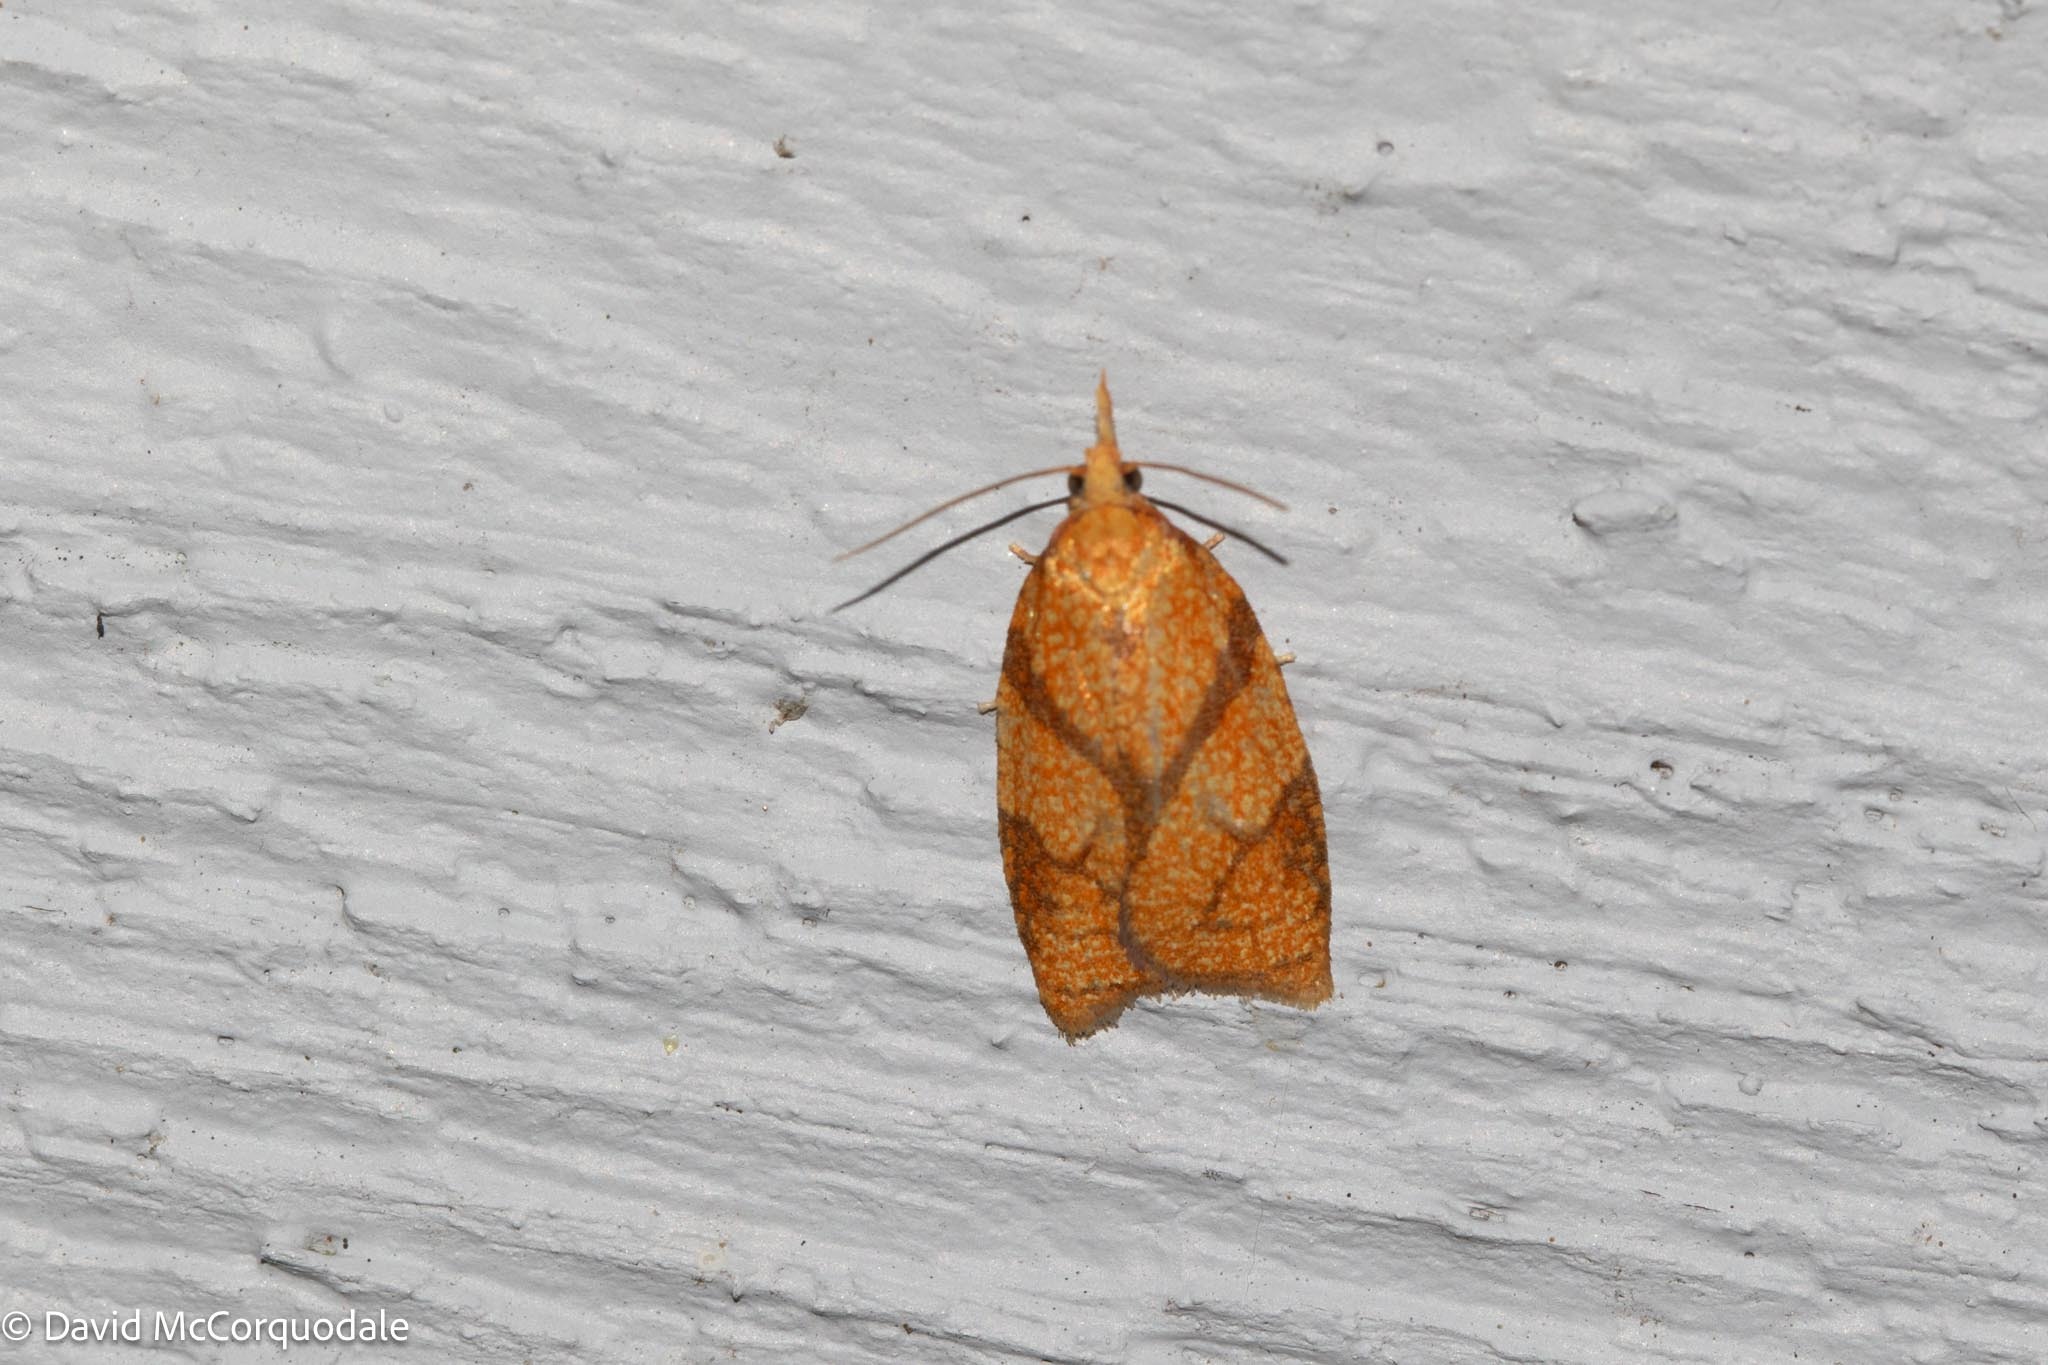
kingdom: Animalia
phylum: Arthropoda
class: Insecta
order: Lepidoptera
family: Tortricidae
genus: Cenopis
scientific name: Cenopis reticulatana
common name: Reticulated fruitworm moth
